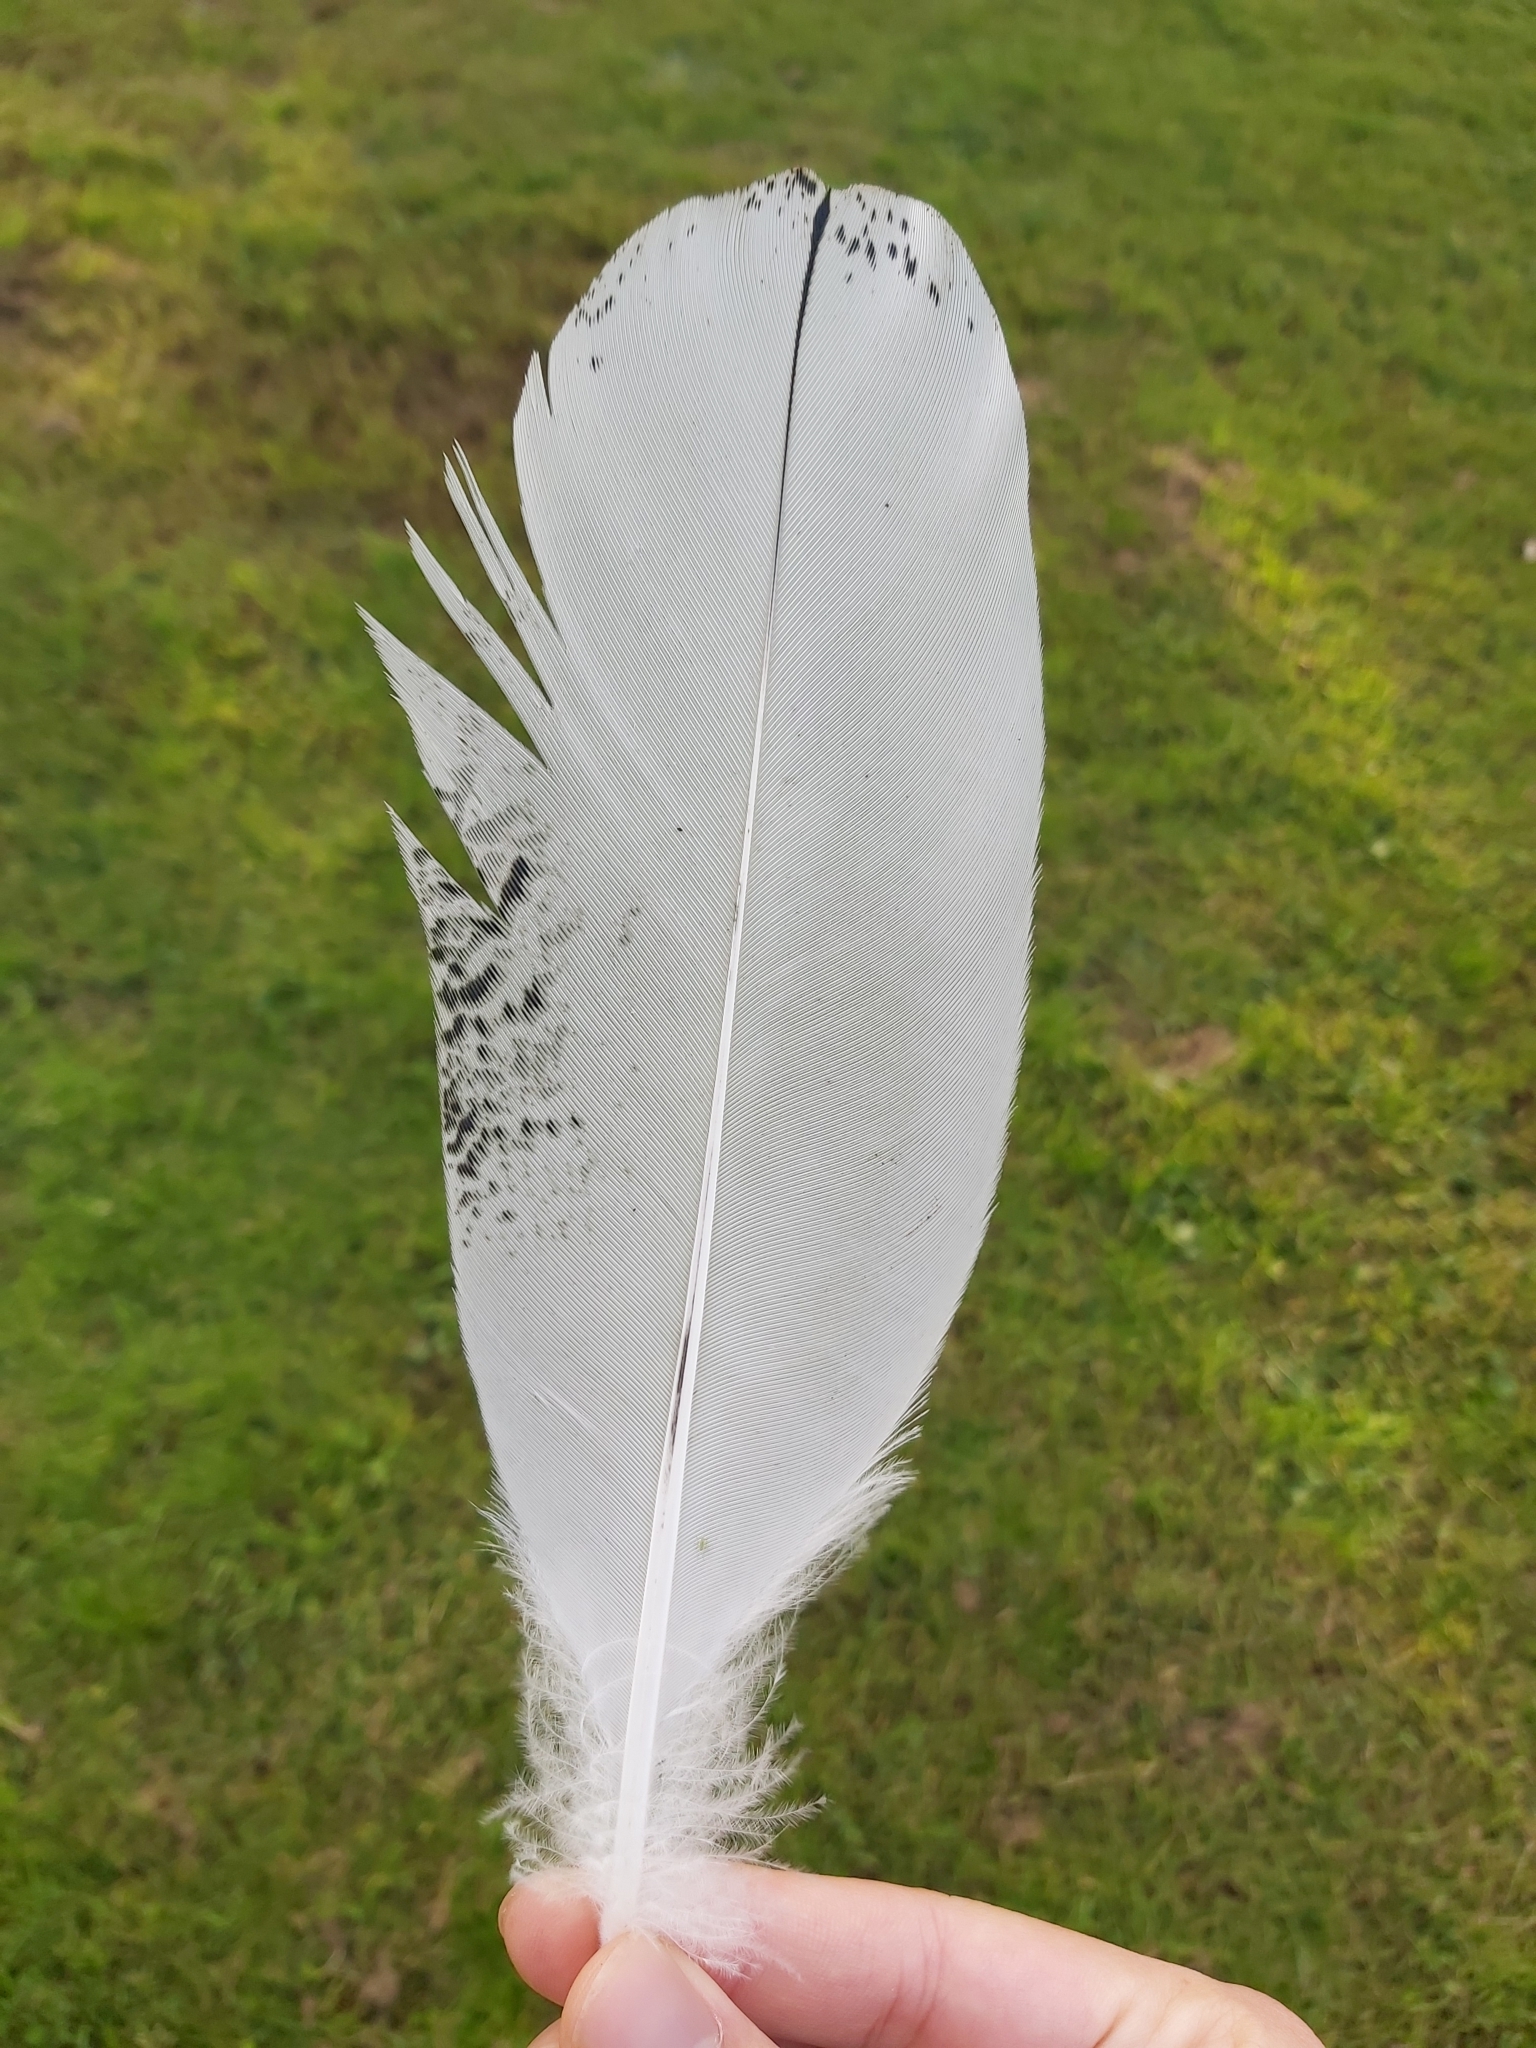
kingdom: Animalia
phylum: Chordata
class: Aves
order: Pelecaniformes
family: Threskiornithidae
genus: Threskiornis
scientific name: Threskiornis molucca
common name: Australian white ibis
